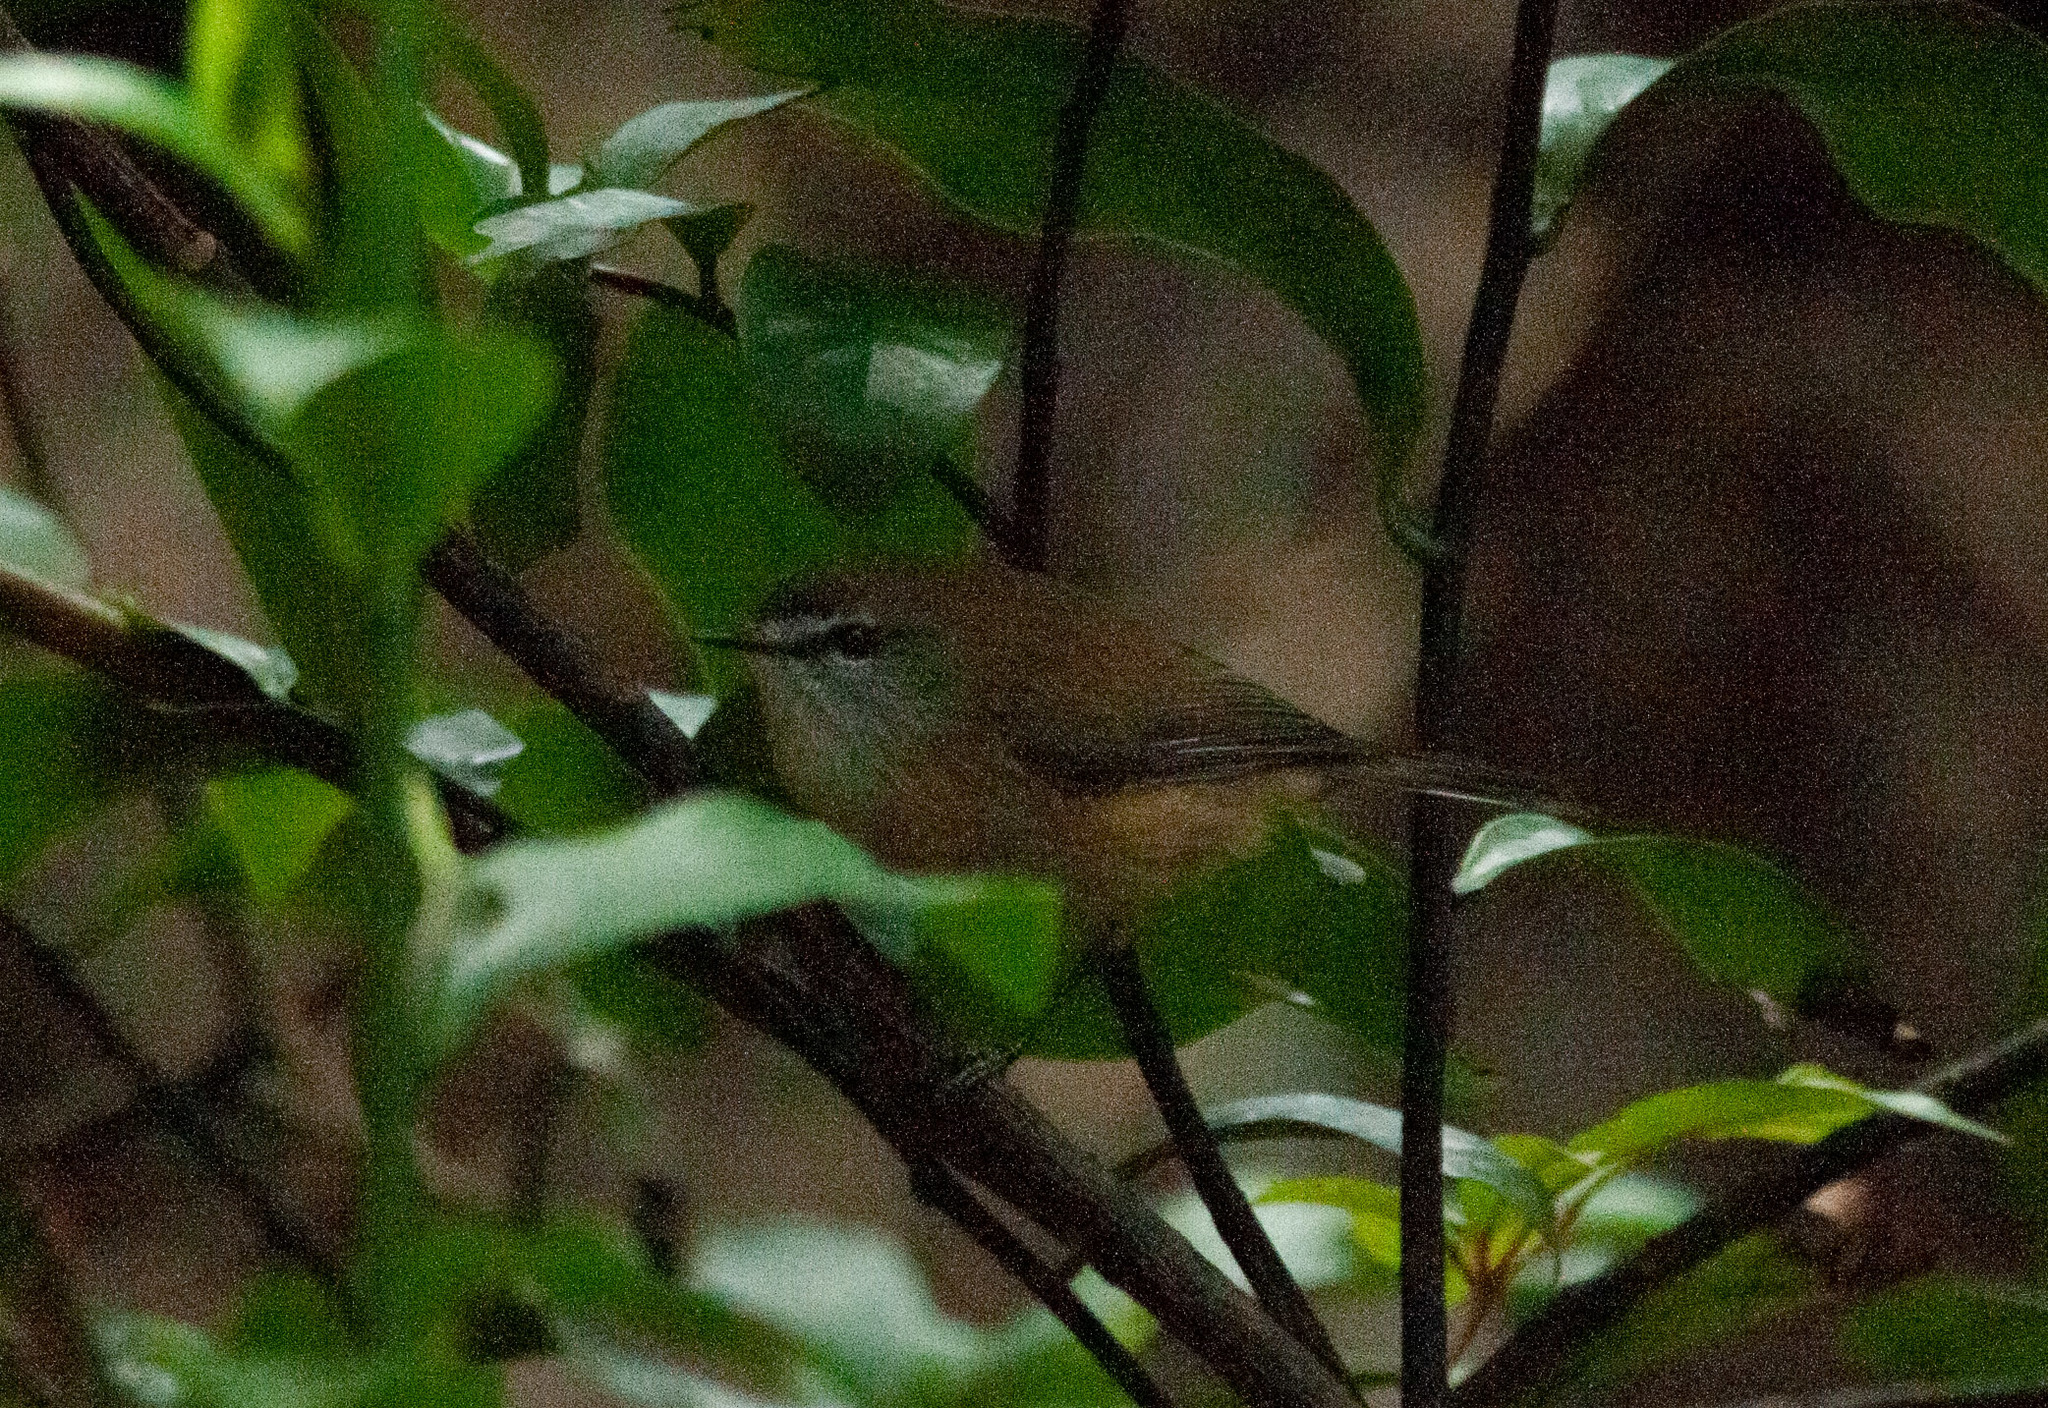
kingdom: Animalia
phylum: Chordata
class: Aves
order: Passeriformes
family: Acanthizidae
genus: Gerygone
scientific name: Gerygone mouki
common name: Brown gerygone
